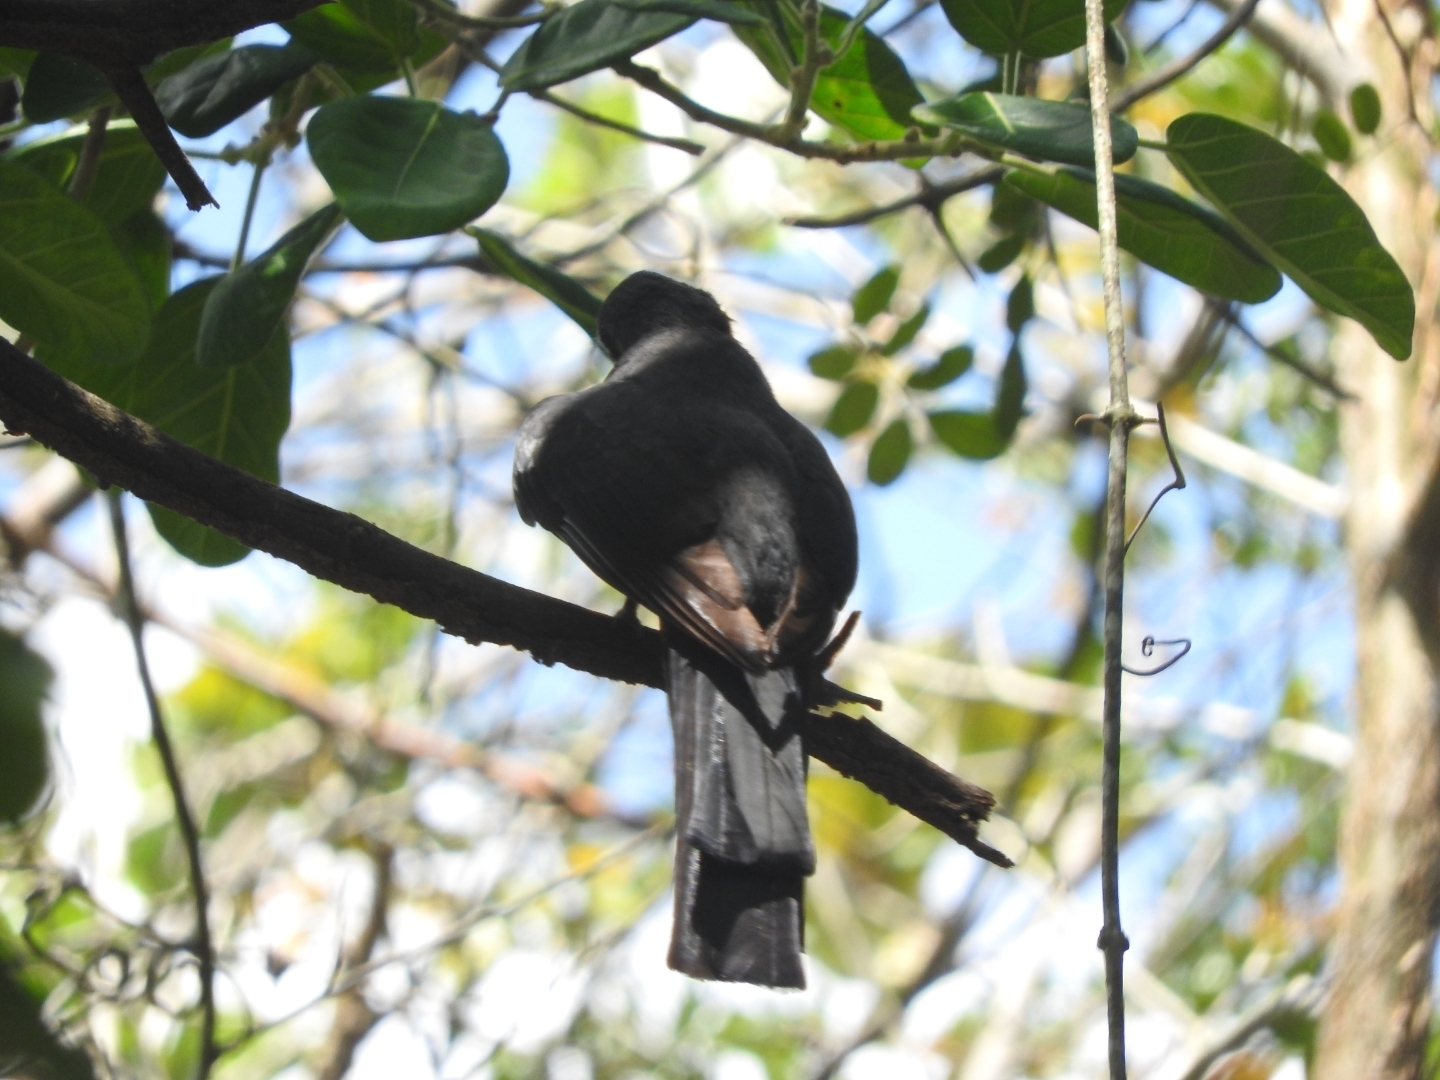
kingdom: Animalia
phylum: Chordata
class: Aves
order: Trogoniformes
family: Trogonidae
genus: Trogon
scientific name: Trogon melanocephalus
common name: Black-headed trogon
